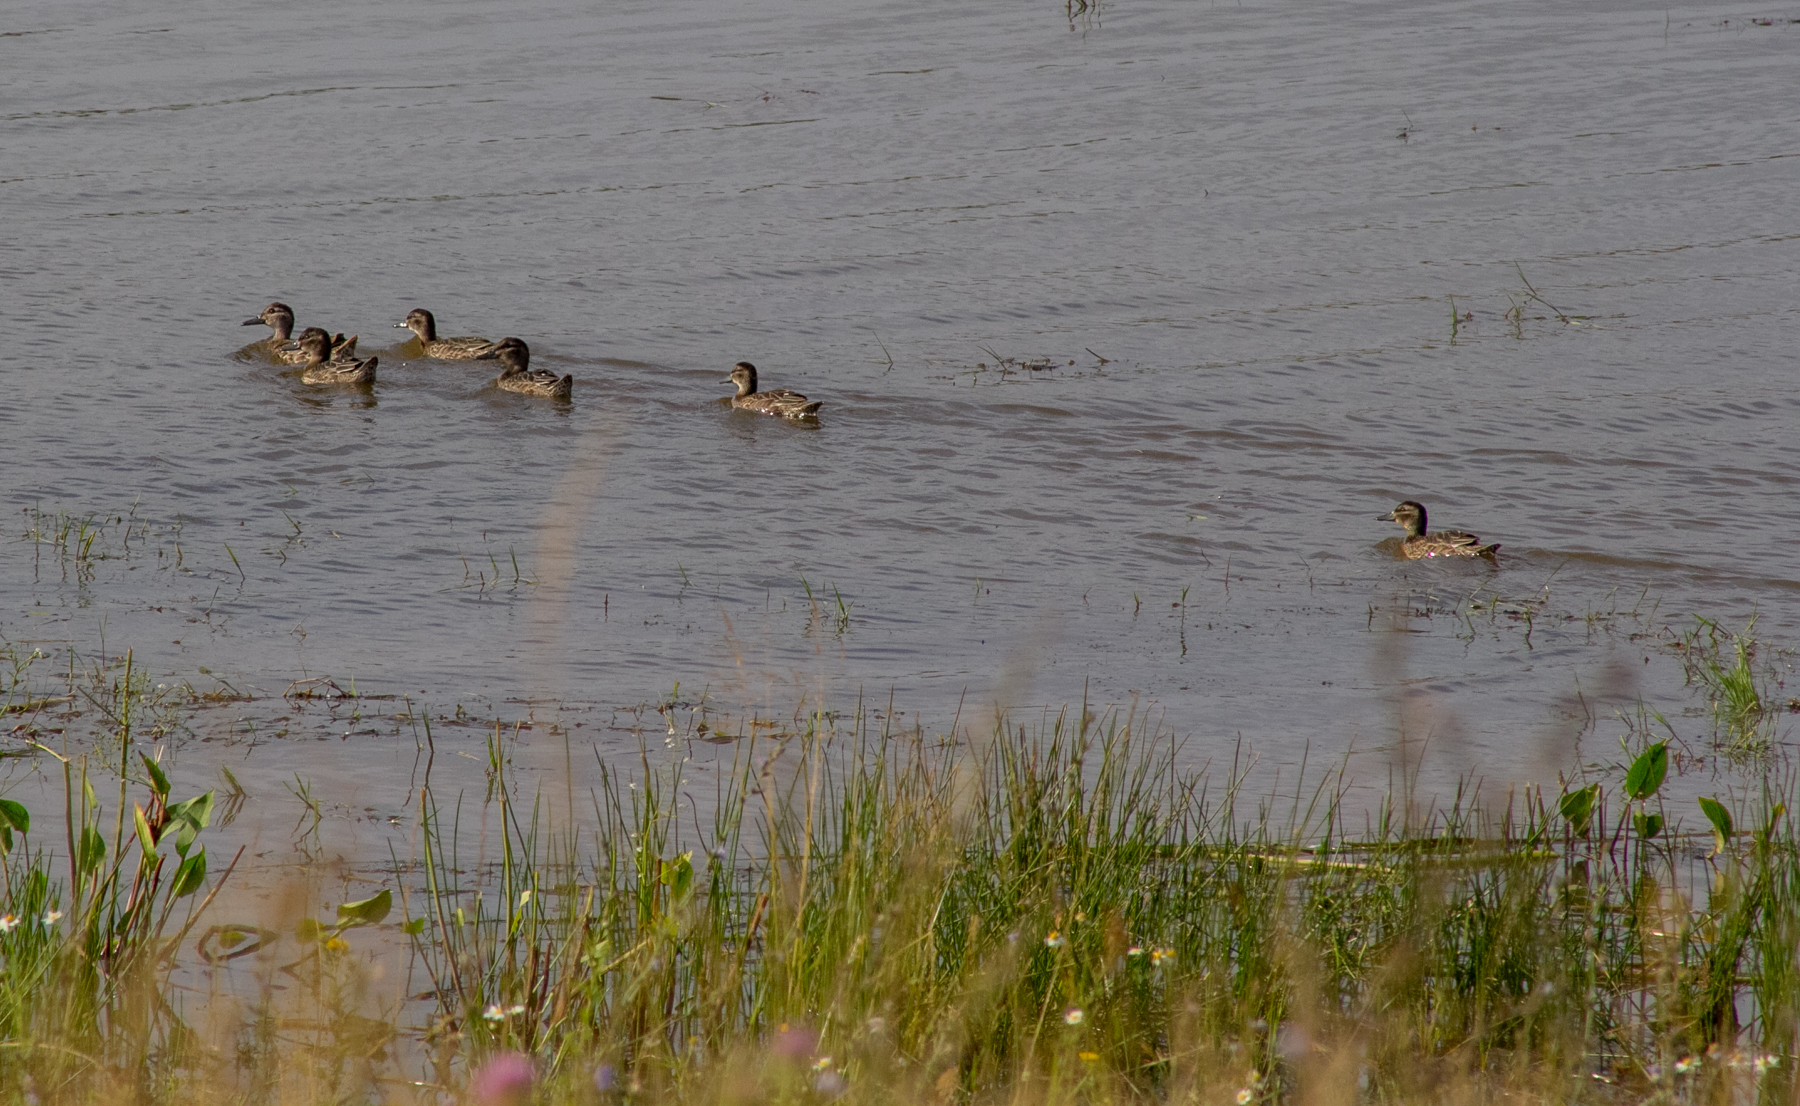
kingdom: Animalia
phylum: Chordata
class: Aves
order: Anseriformes
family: Anatidae
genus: Spatula
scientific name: Spatula querquedula
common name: Garganey
